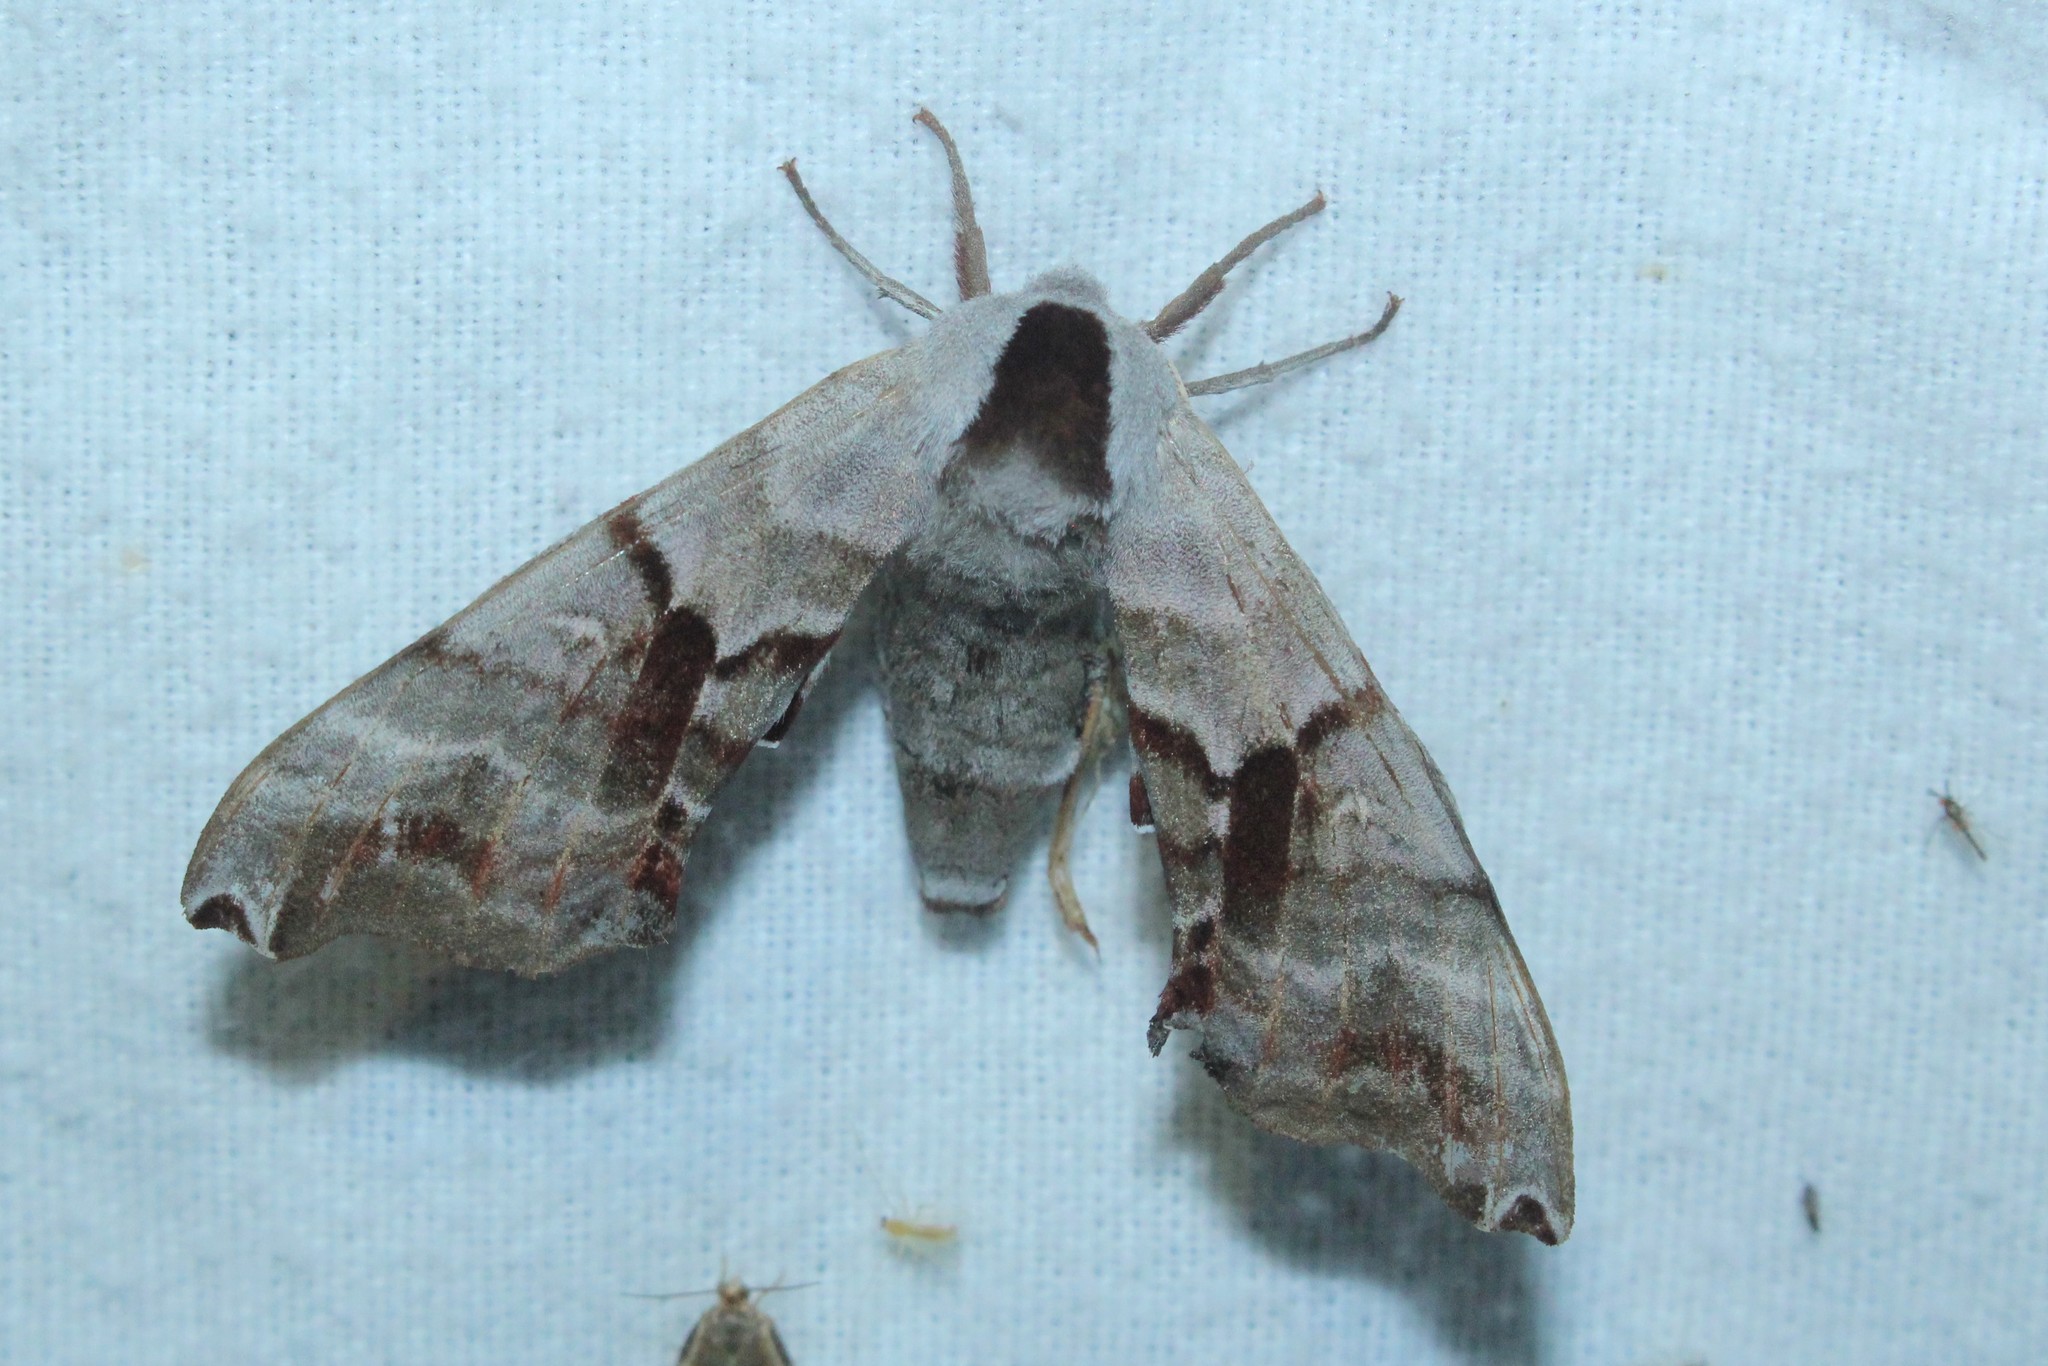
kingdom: Animalia
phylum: Arthropoda
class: Insecta
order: Lepidoptera
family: Sphingidae
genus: Smerinthus
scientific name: Smerinthus jamaicensis
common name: Twin spotted sphinx
